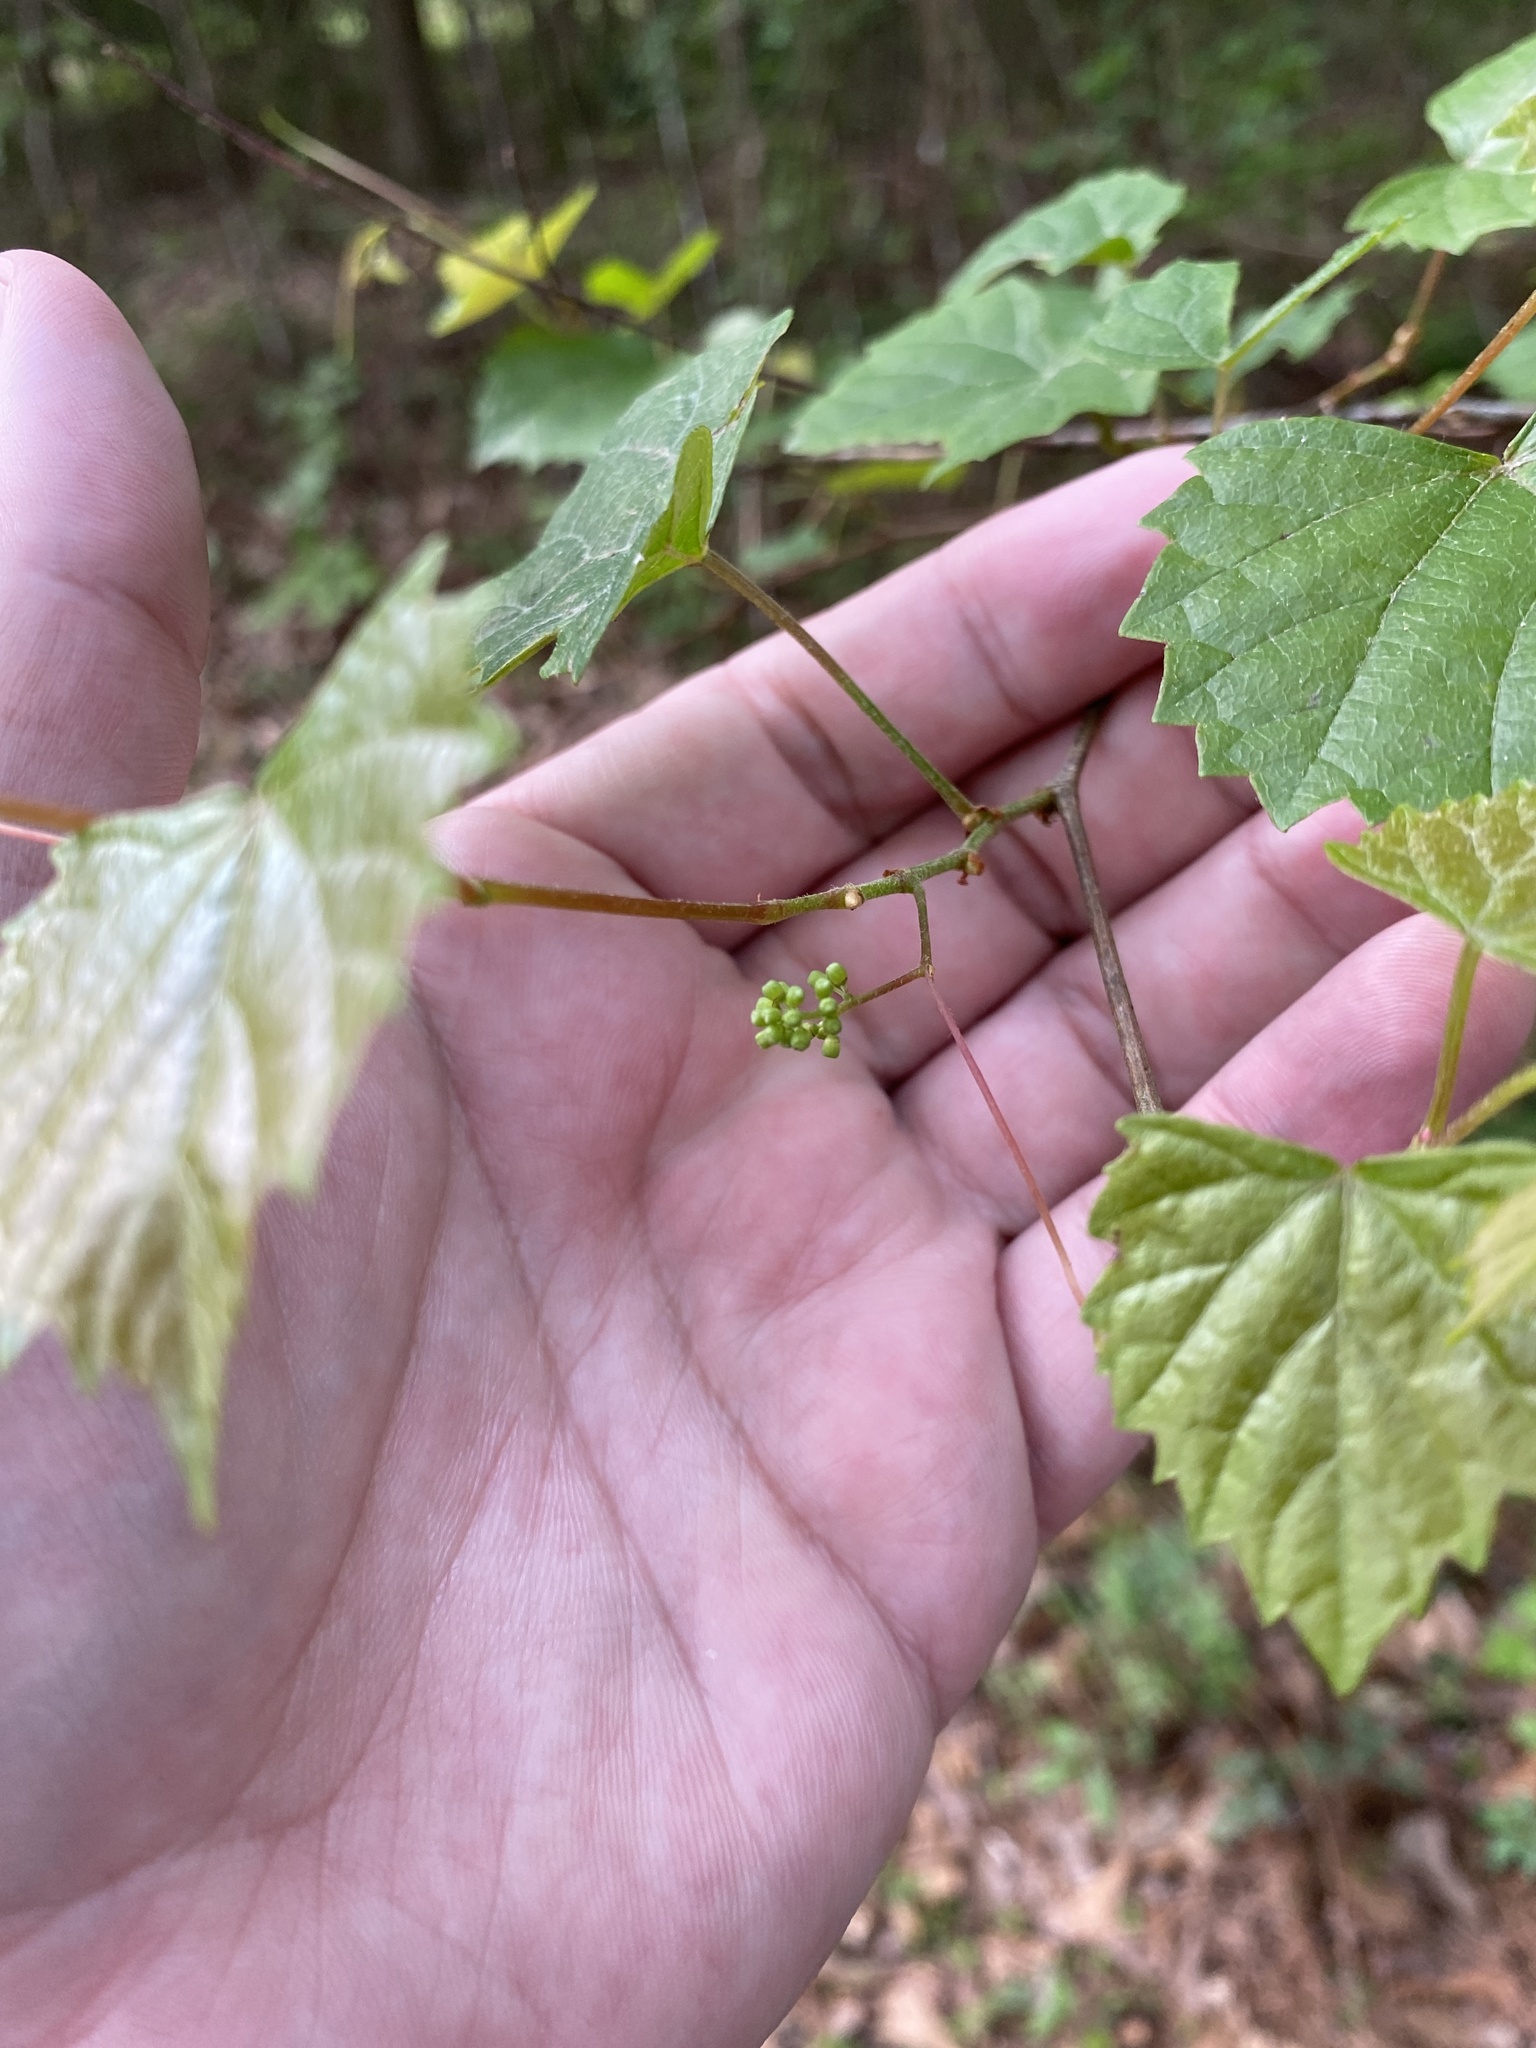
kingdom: Plantae
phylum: Tracheophyta
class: Magnoliopsida
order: Vitales
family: Vitaceae
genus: Vitis
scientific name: Vitis rotundifolia
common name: Muscadine grape
